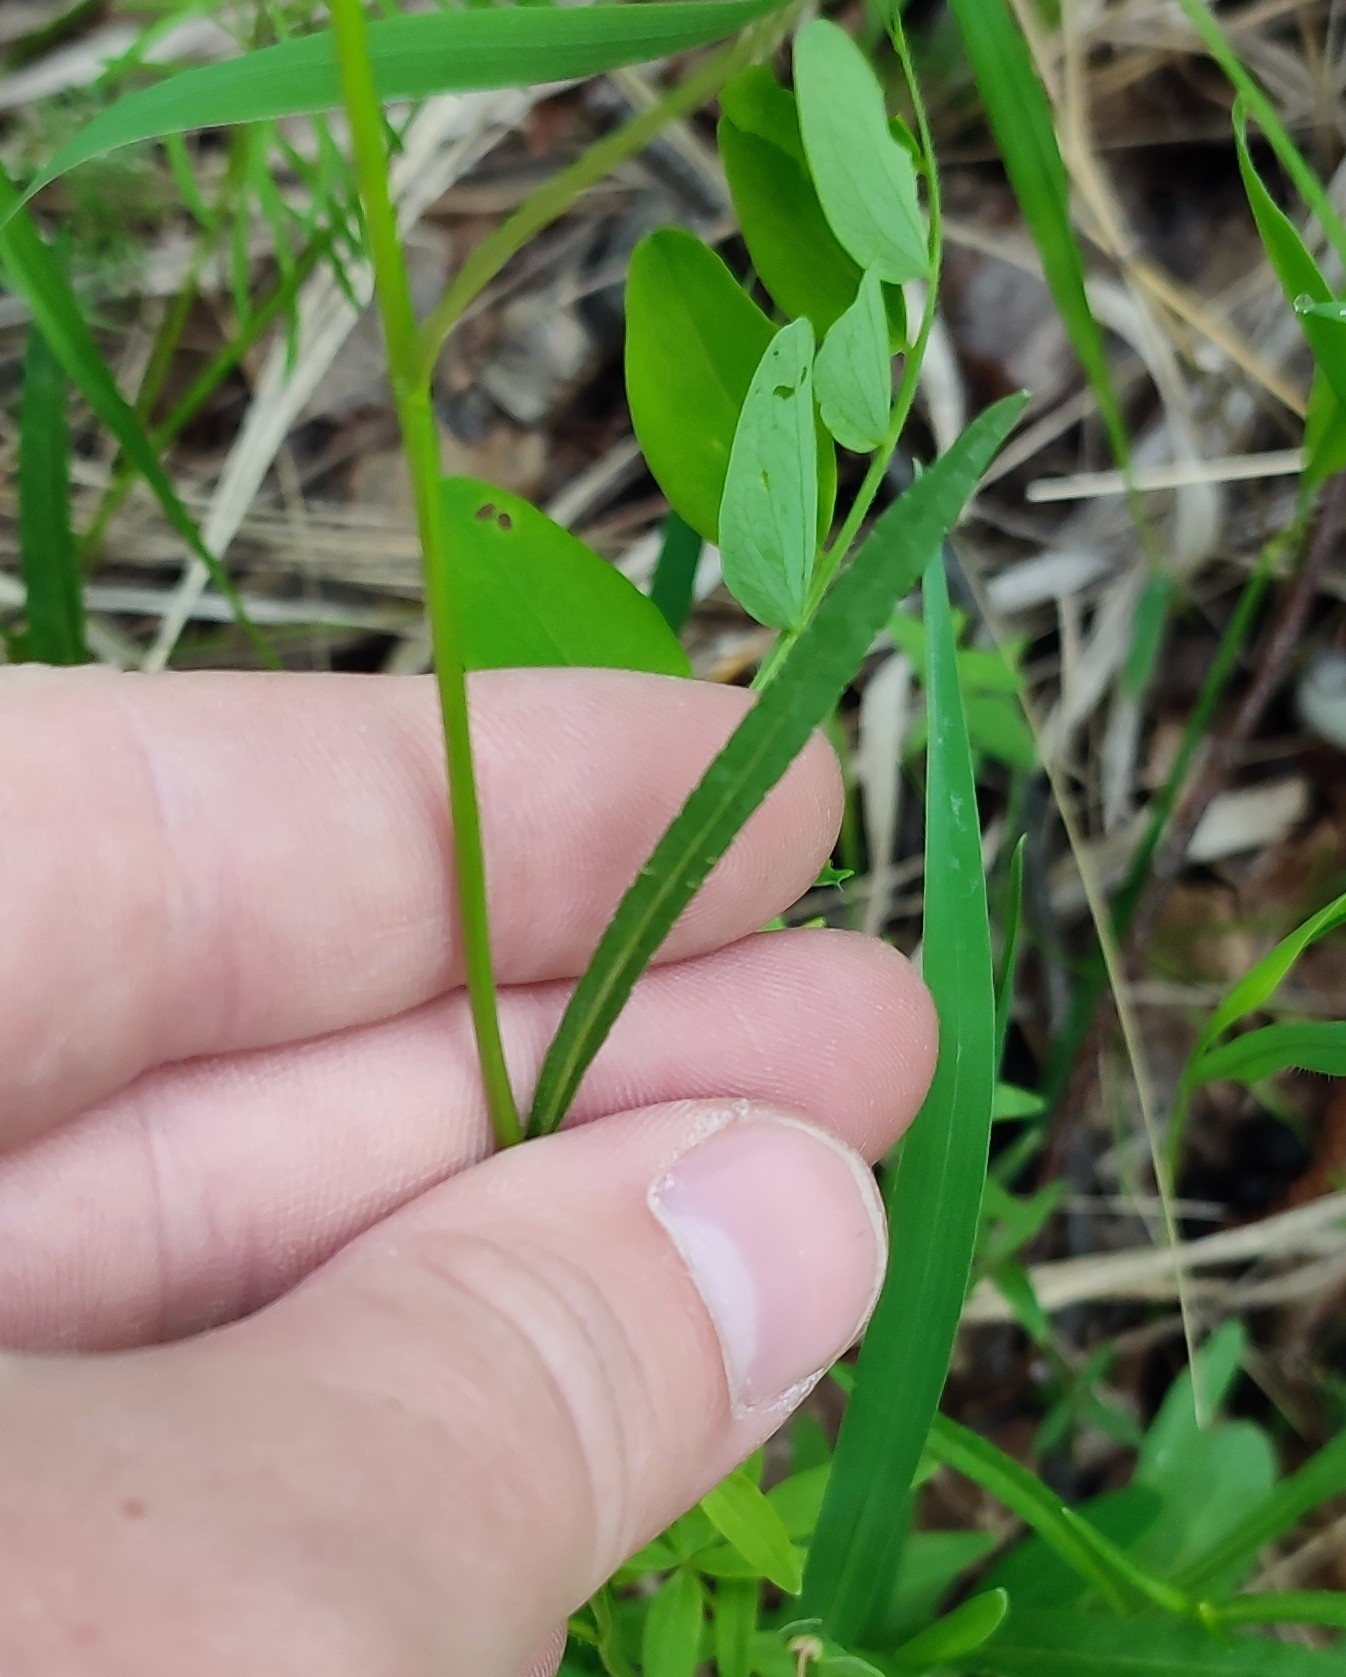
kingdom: Plantae
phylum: Tracheophyta
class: Magnoliopsida
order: Asterales
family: Campanulaceae
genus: Campanula
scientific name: Campanula stevenii
